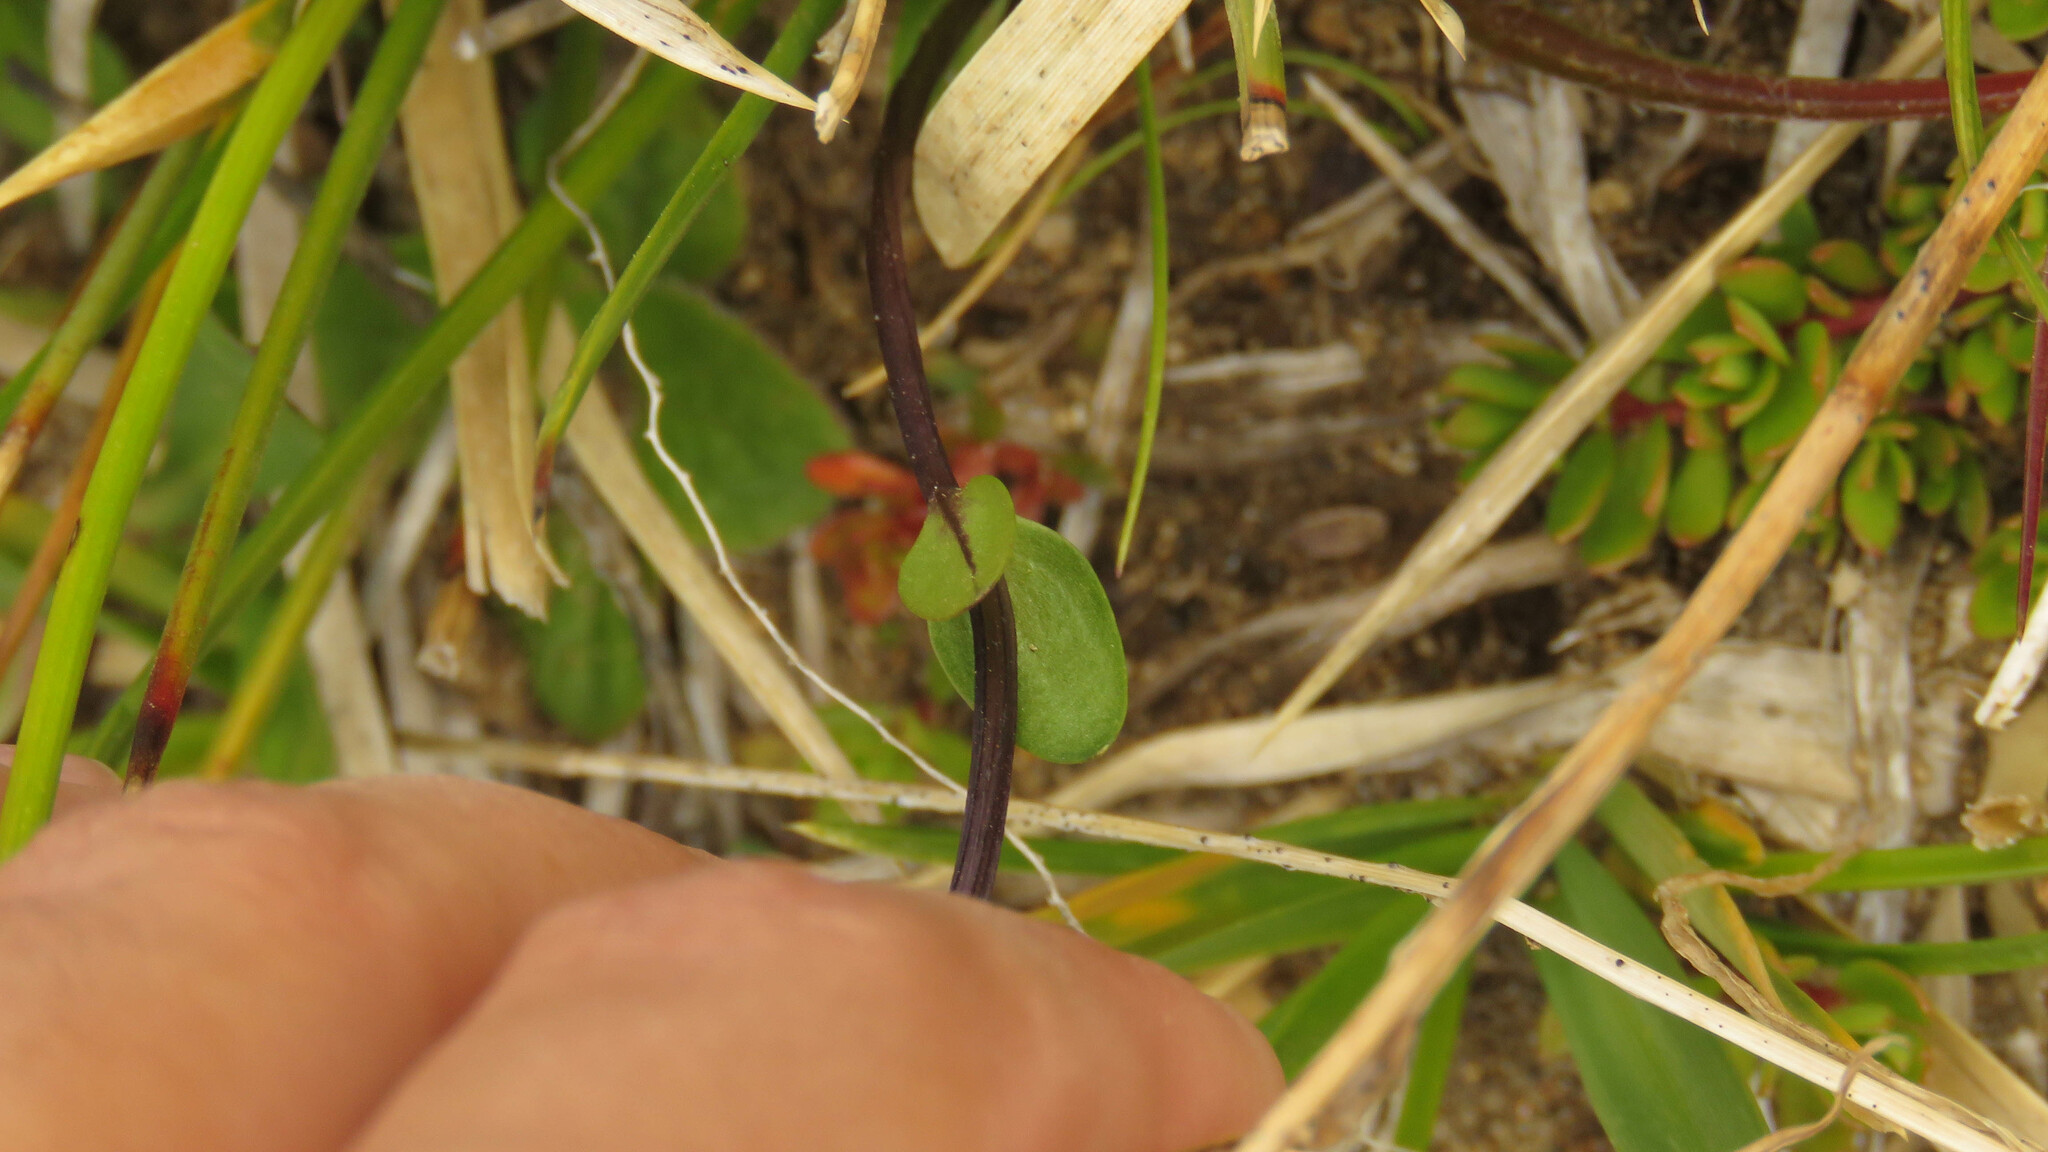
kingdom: Plantae
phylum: Tracheophyta
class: Magnoliopsida
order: Gentianales
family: Gentianaceae
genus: Gentianella
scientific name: Gentianella magellanica
